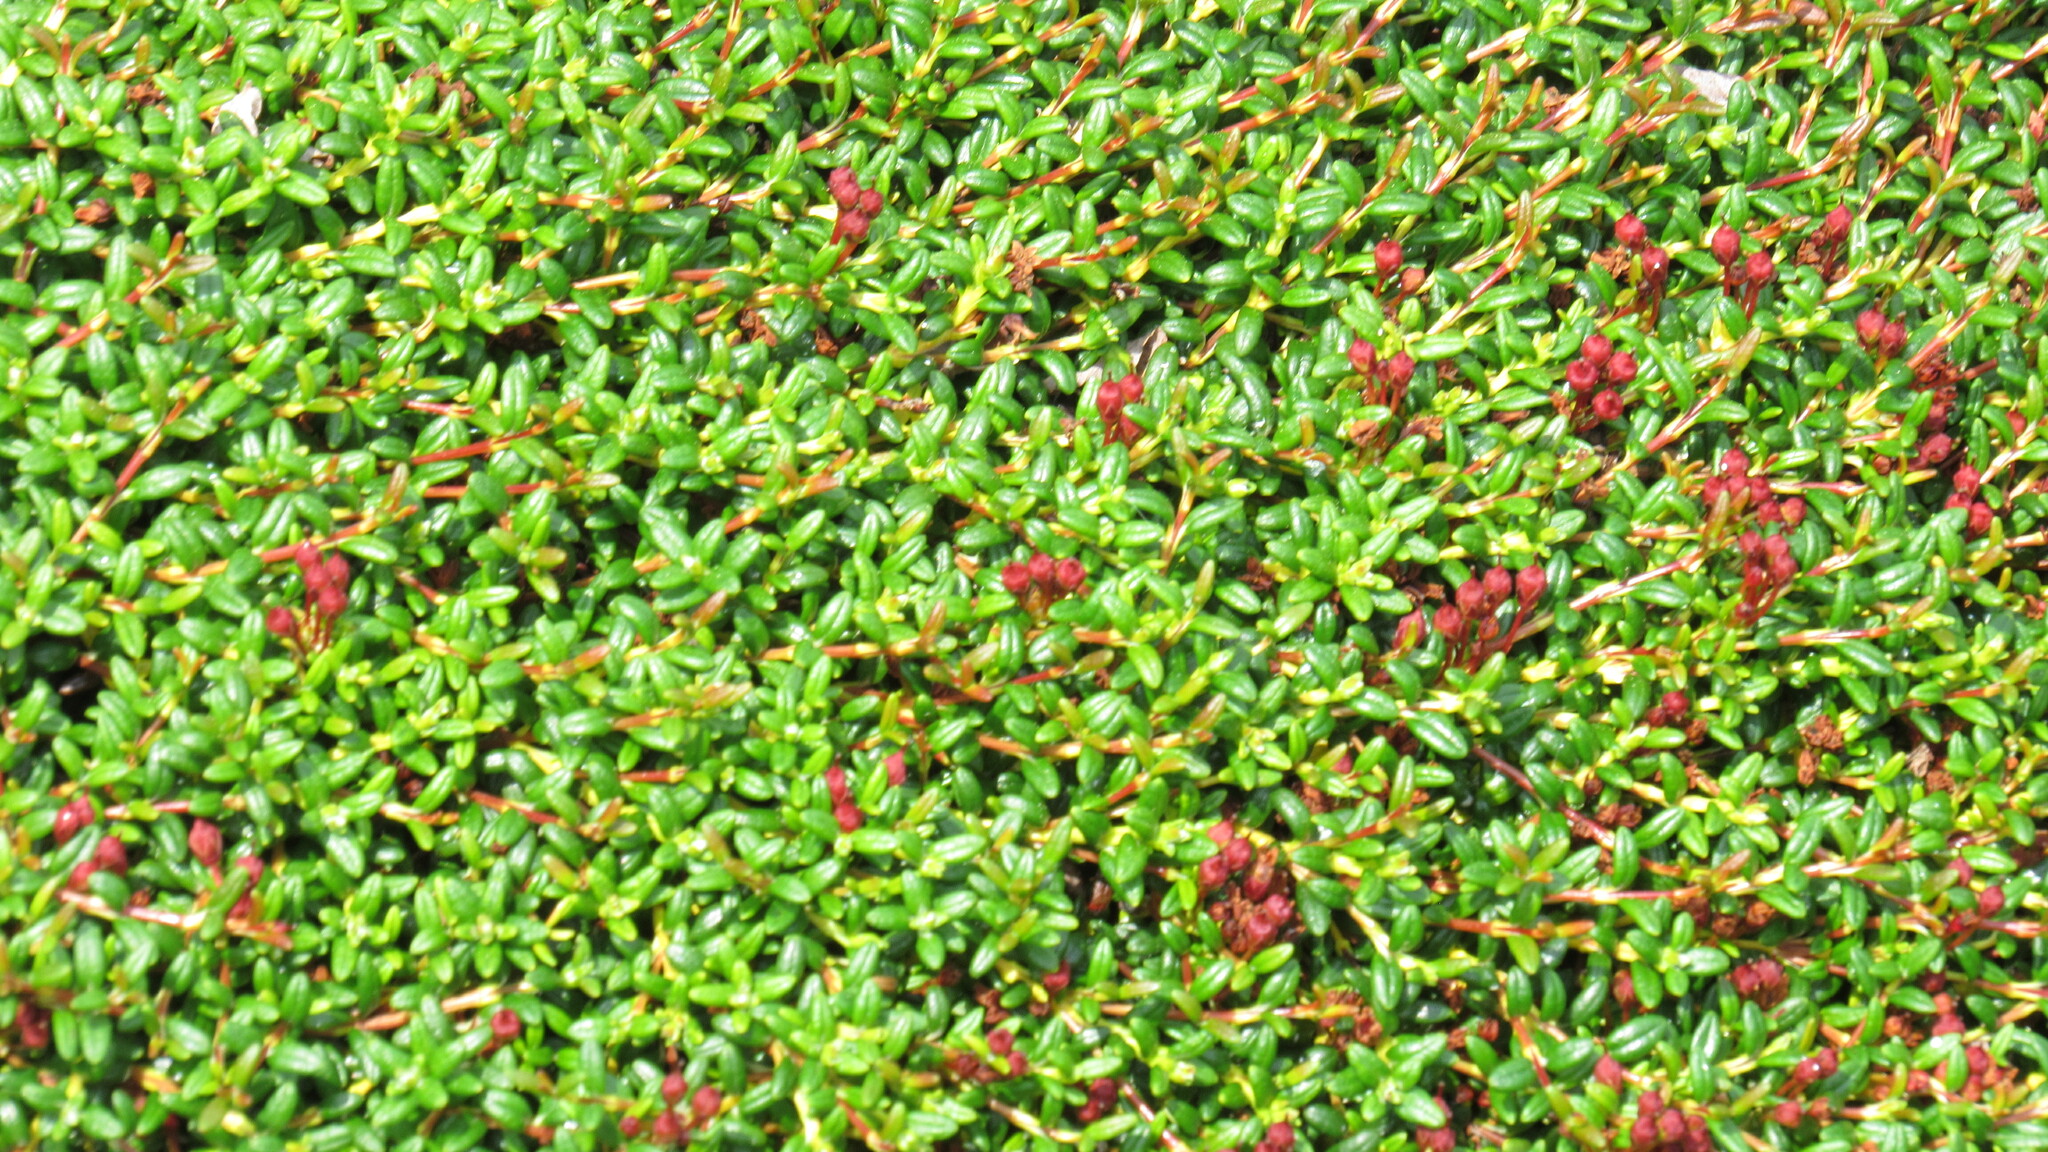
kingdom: Plantae
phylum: Tracheophyta
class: Magnoliopsida
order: Ericales
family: Ericaceae
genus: Kalmia
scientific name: Kalmia procumbens
